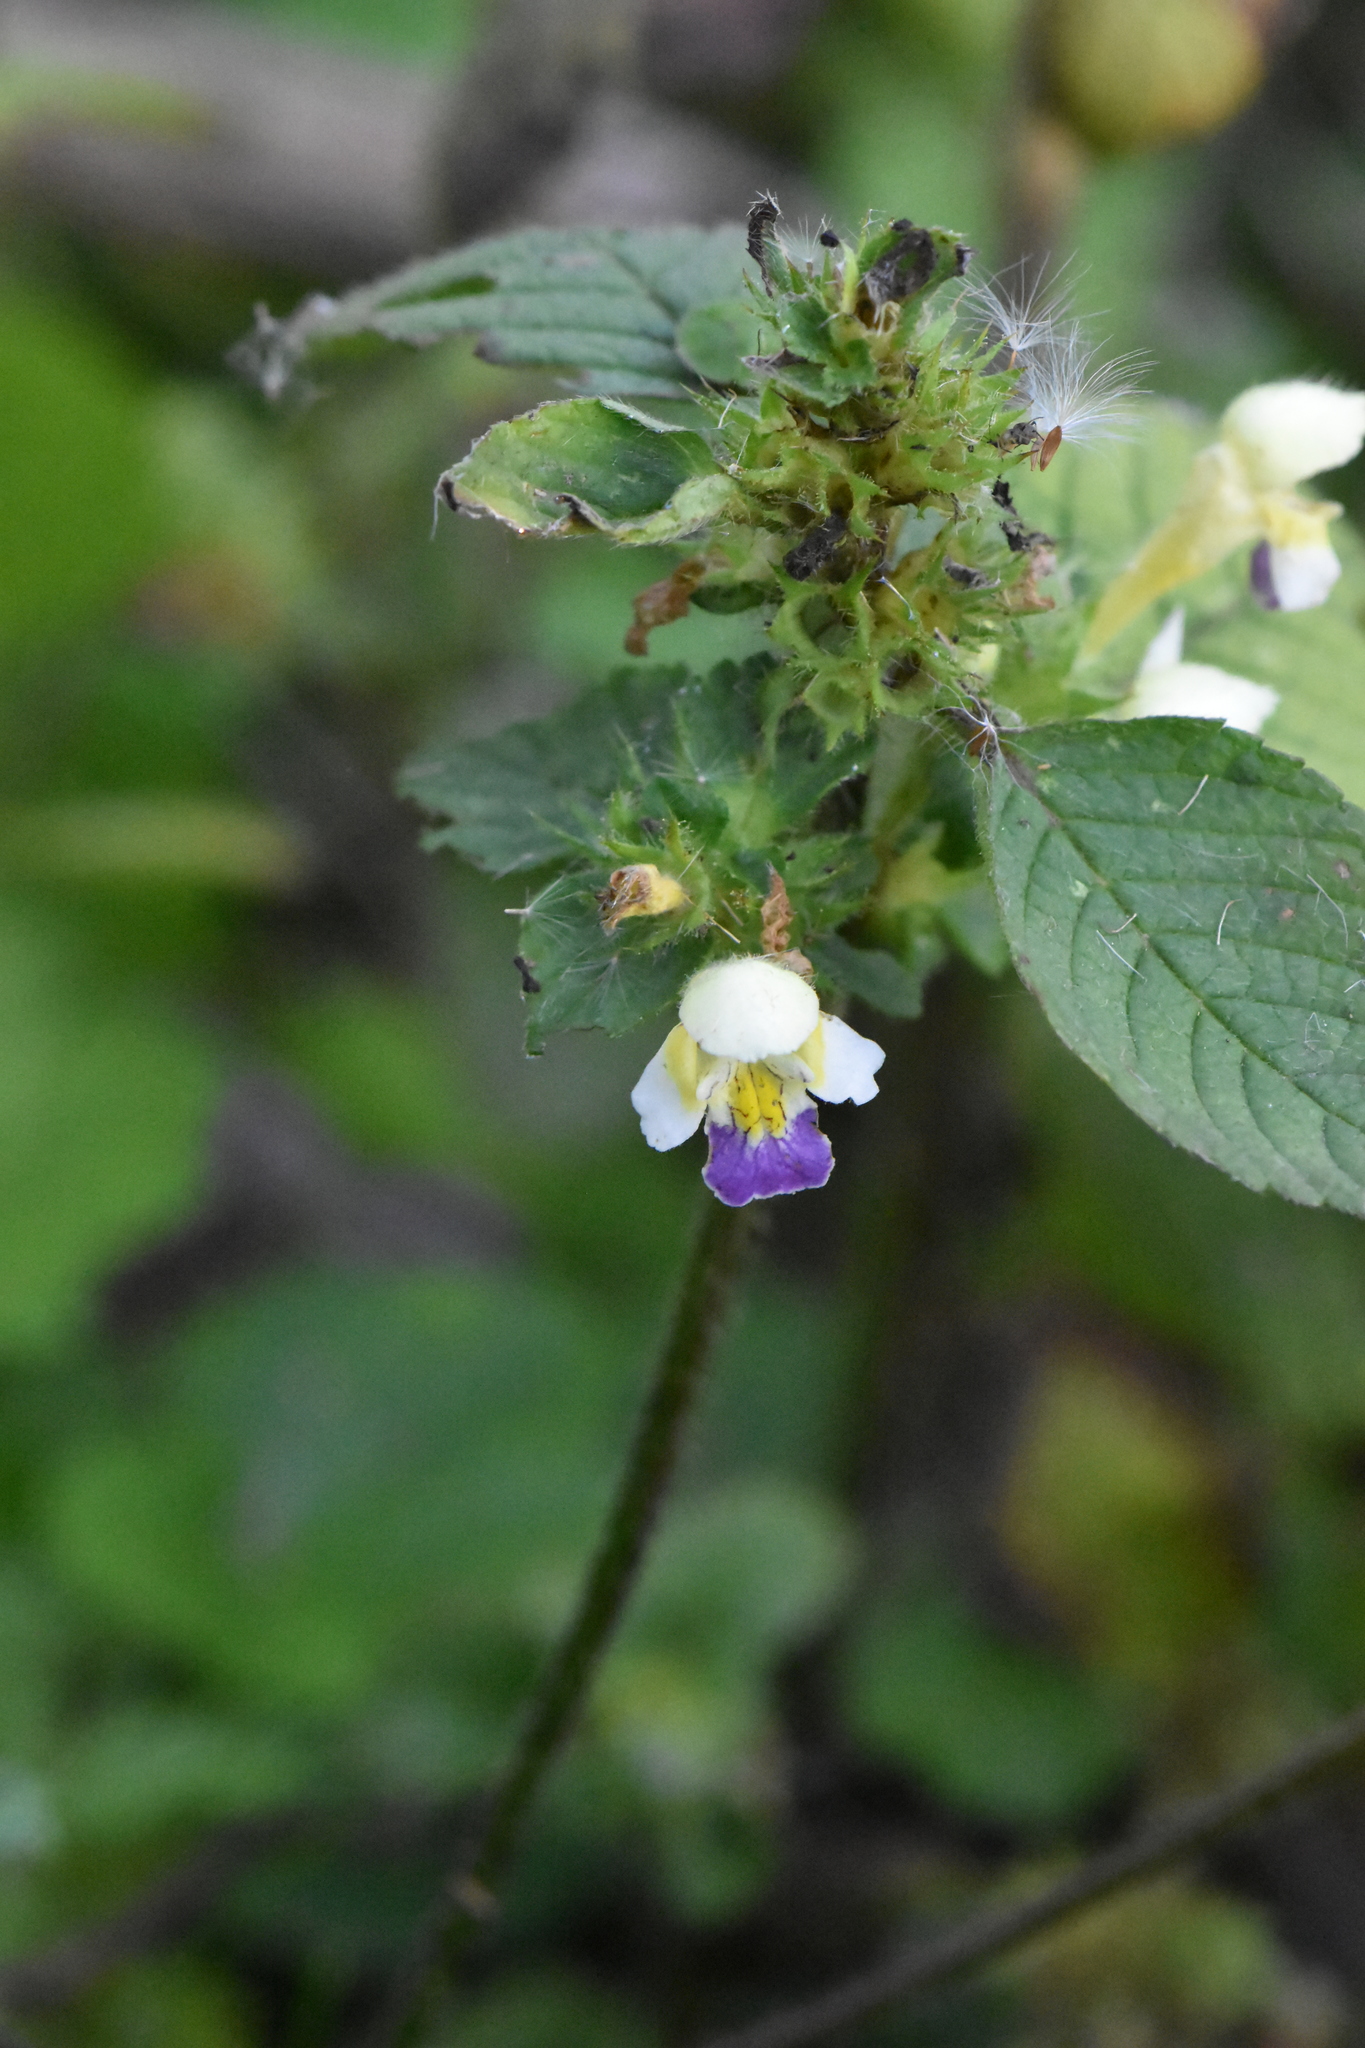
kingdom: Plantae
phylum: Tracheophyta
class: Magnoliopsida
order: Lamiales
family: Lamiaceae
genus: Galeopsis
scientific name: Galeopsis speciosa
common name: Large-flowered hemp-nettle
